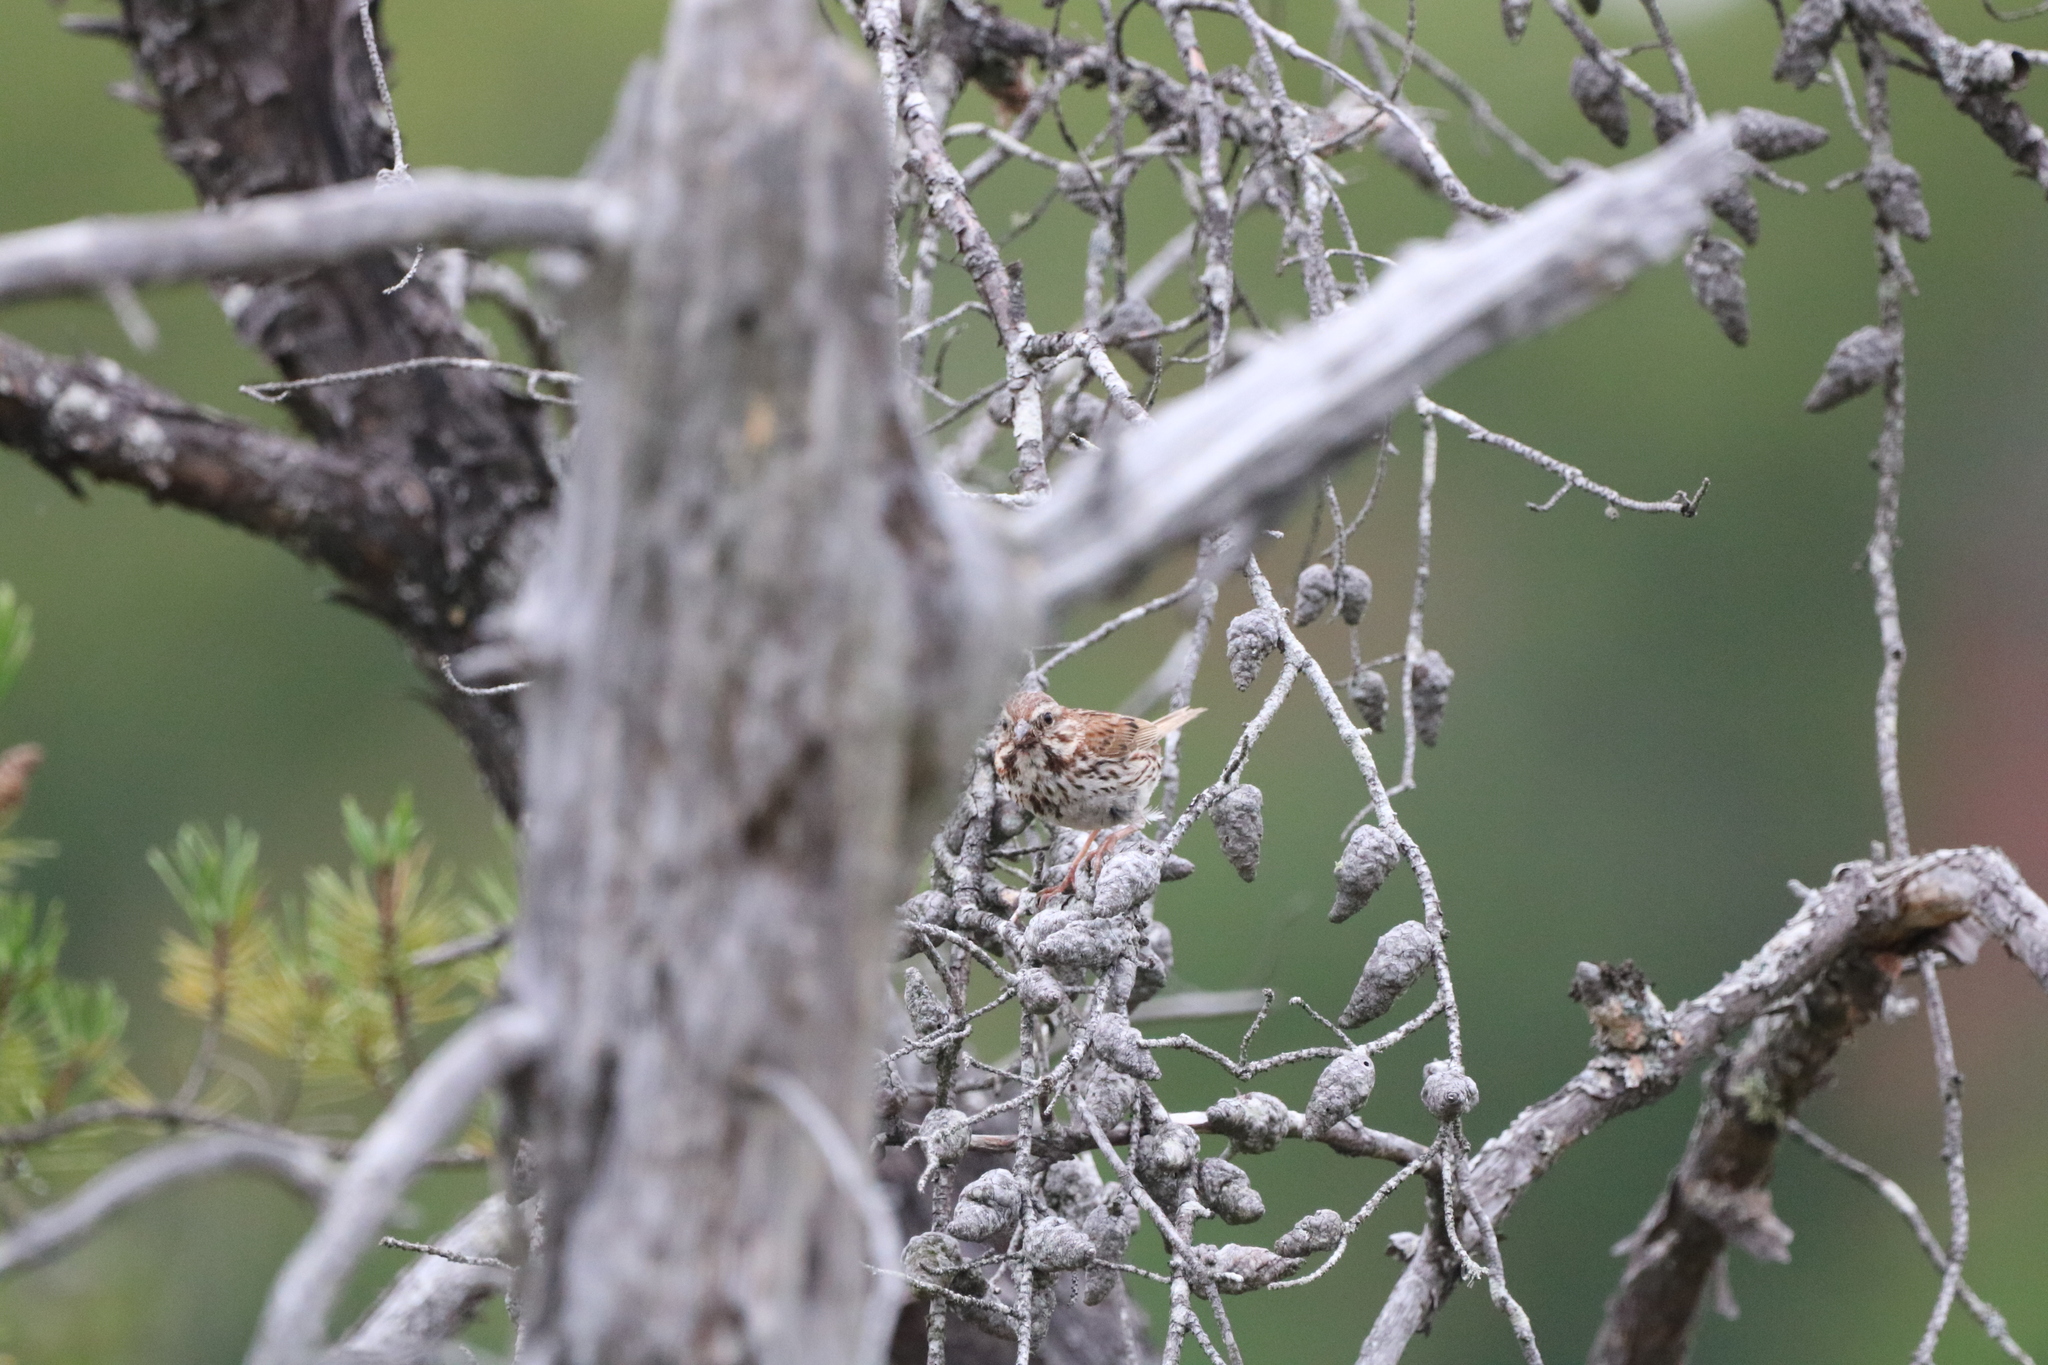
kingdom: Animalia
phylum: Chordata
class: Aves
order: Passeriformes
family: Passerellidae
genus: Melospiza
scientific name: Melospiza melodia
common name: Song sparrow
